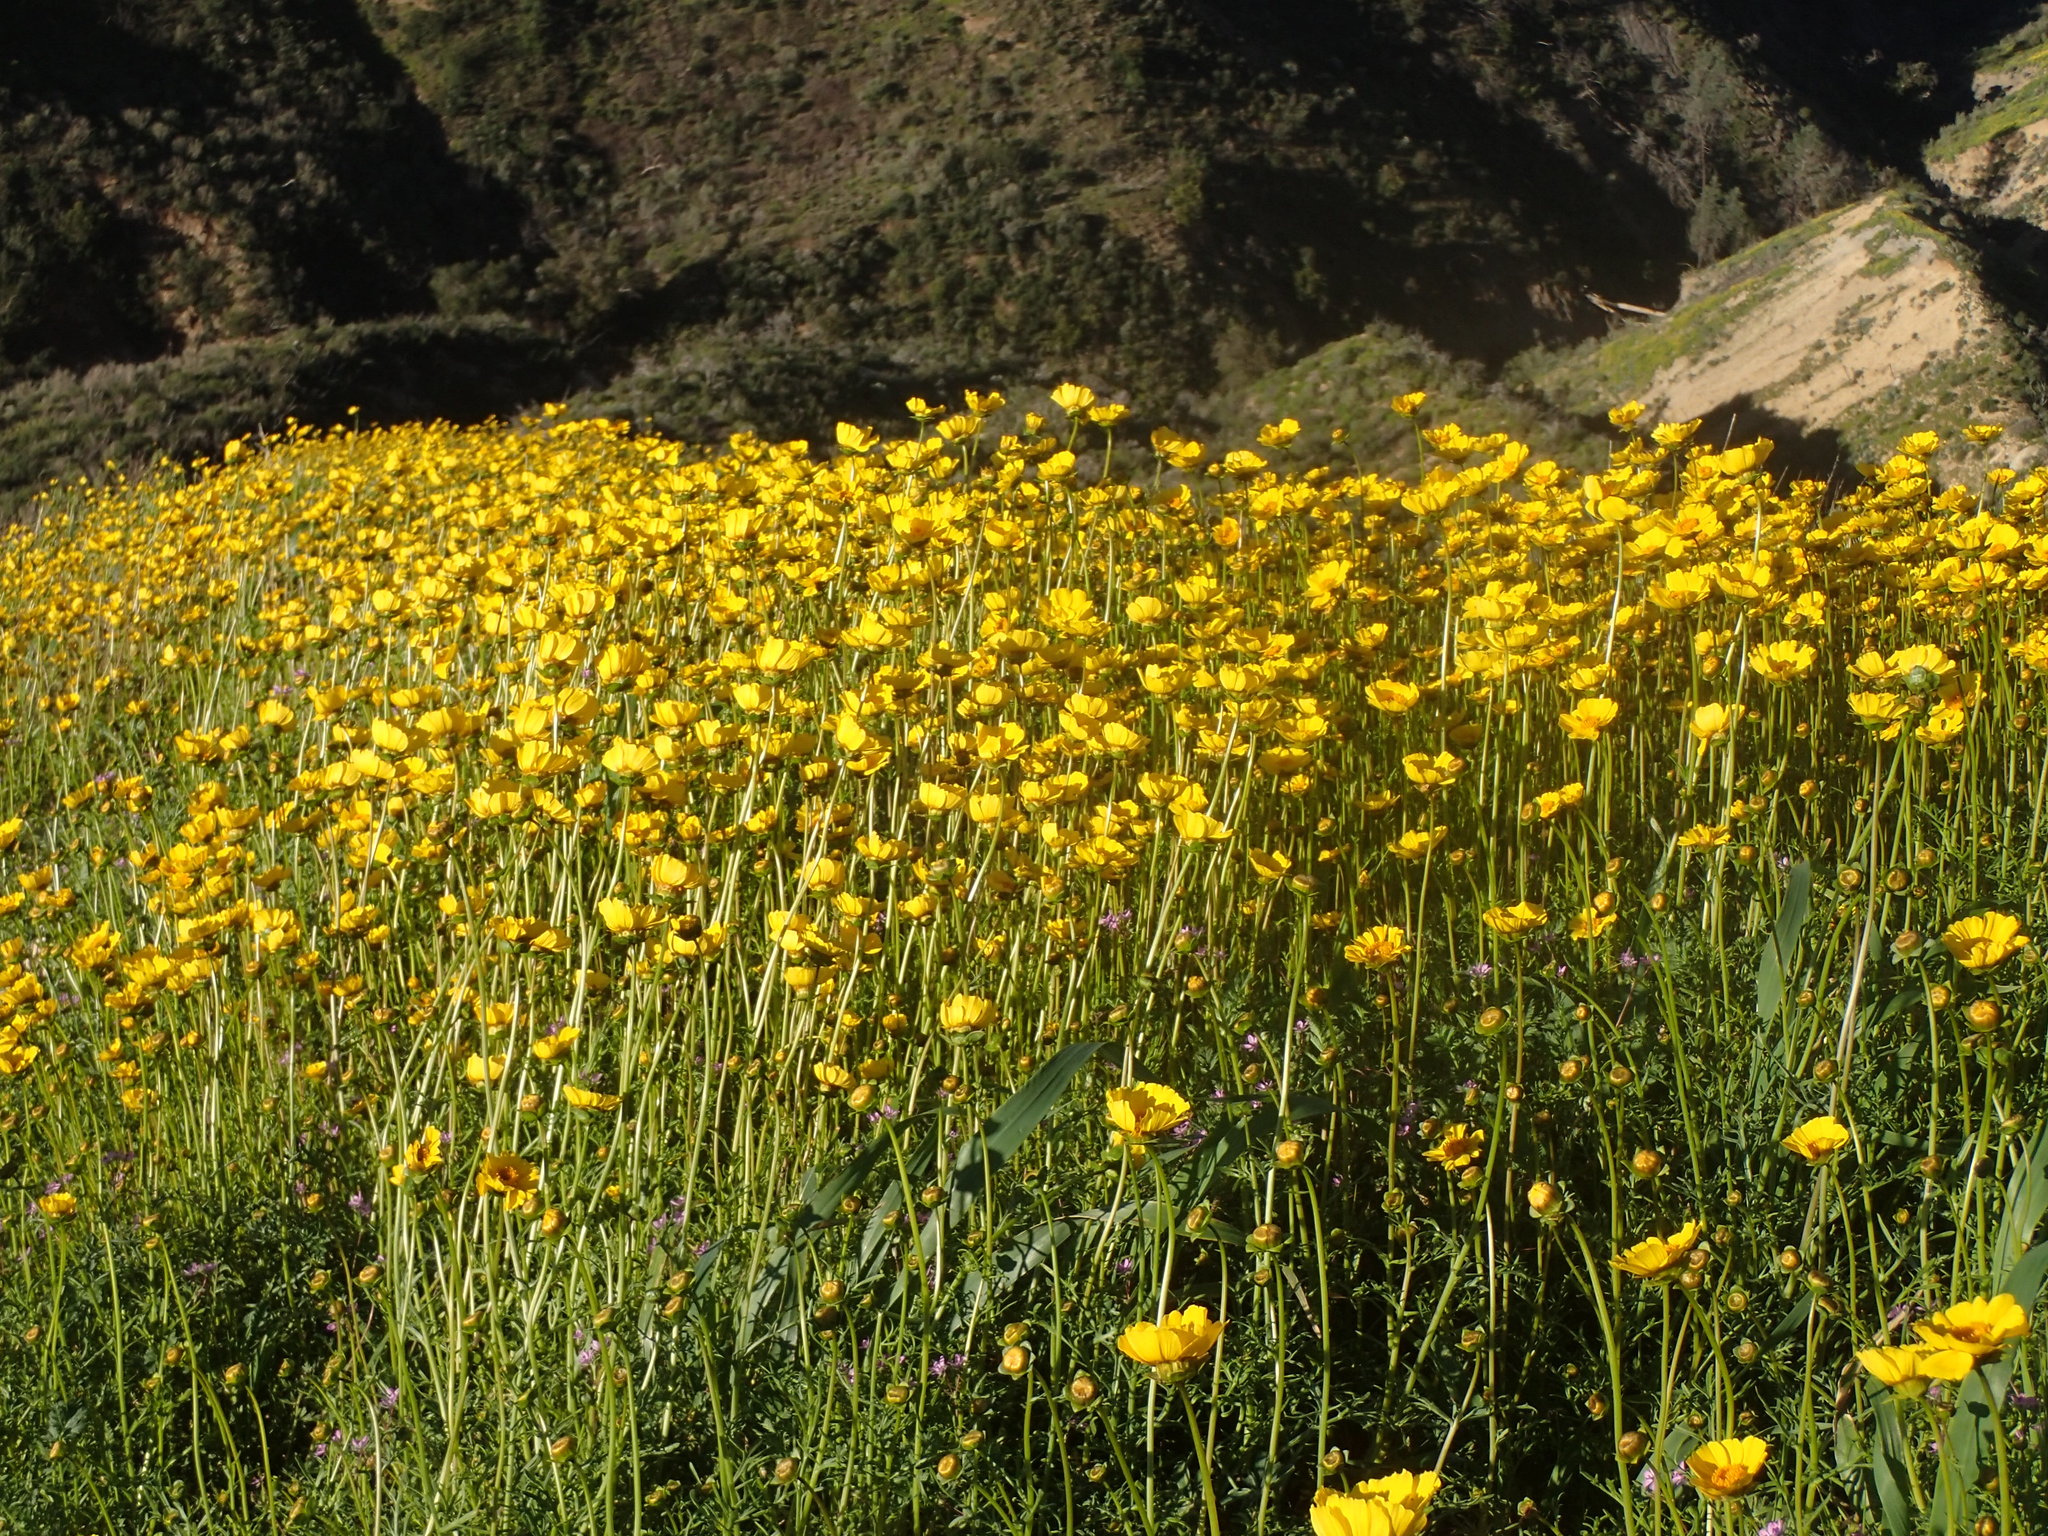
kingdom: Plantae
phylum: Tracheophyta
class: Magnoliopsida
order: Asterales
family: Asteraceae
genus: Coreopsis
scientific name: Coreopsis calliopsidea
